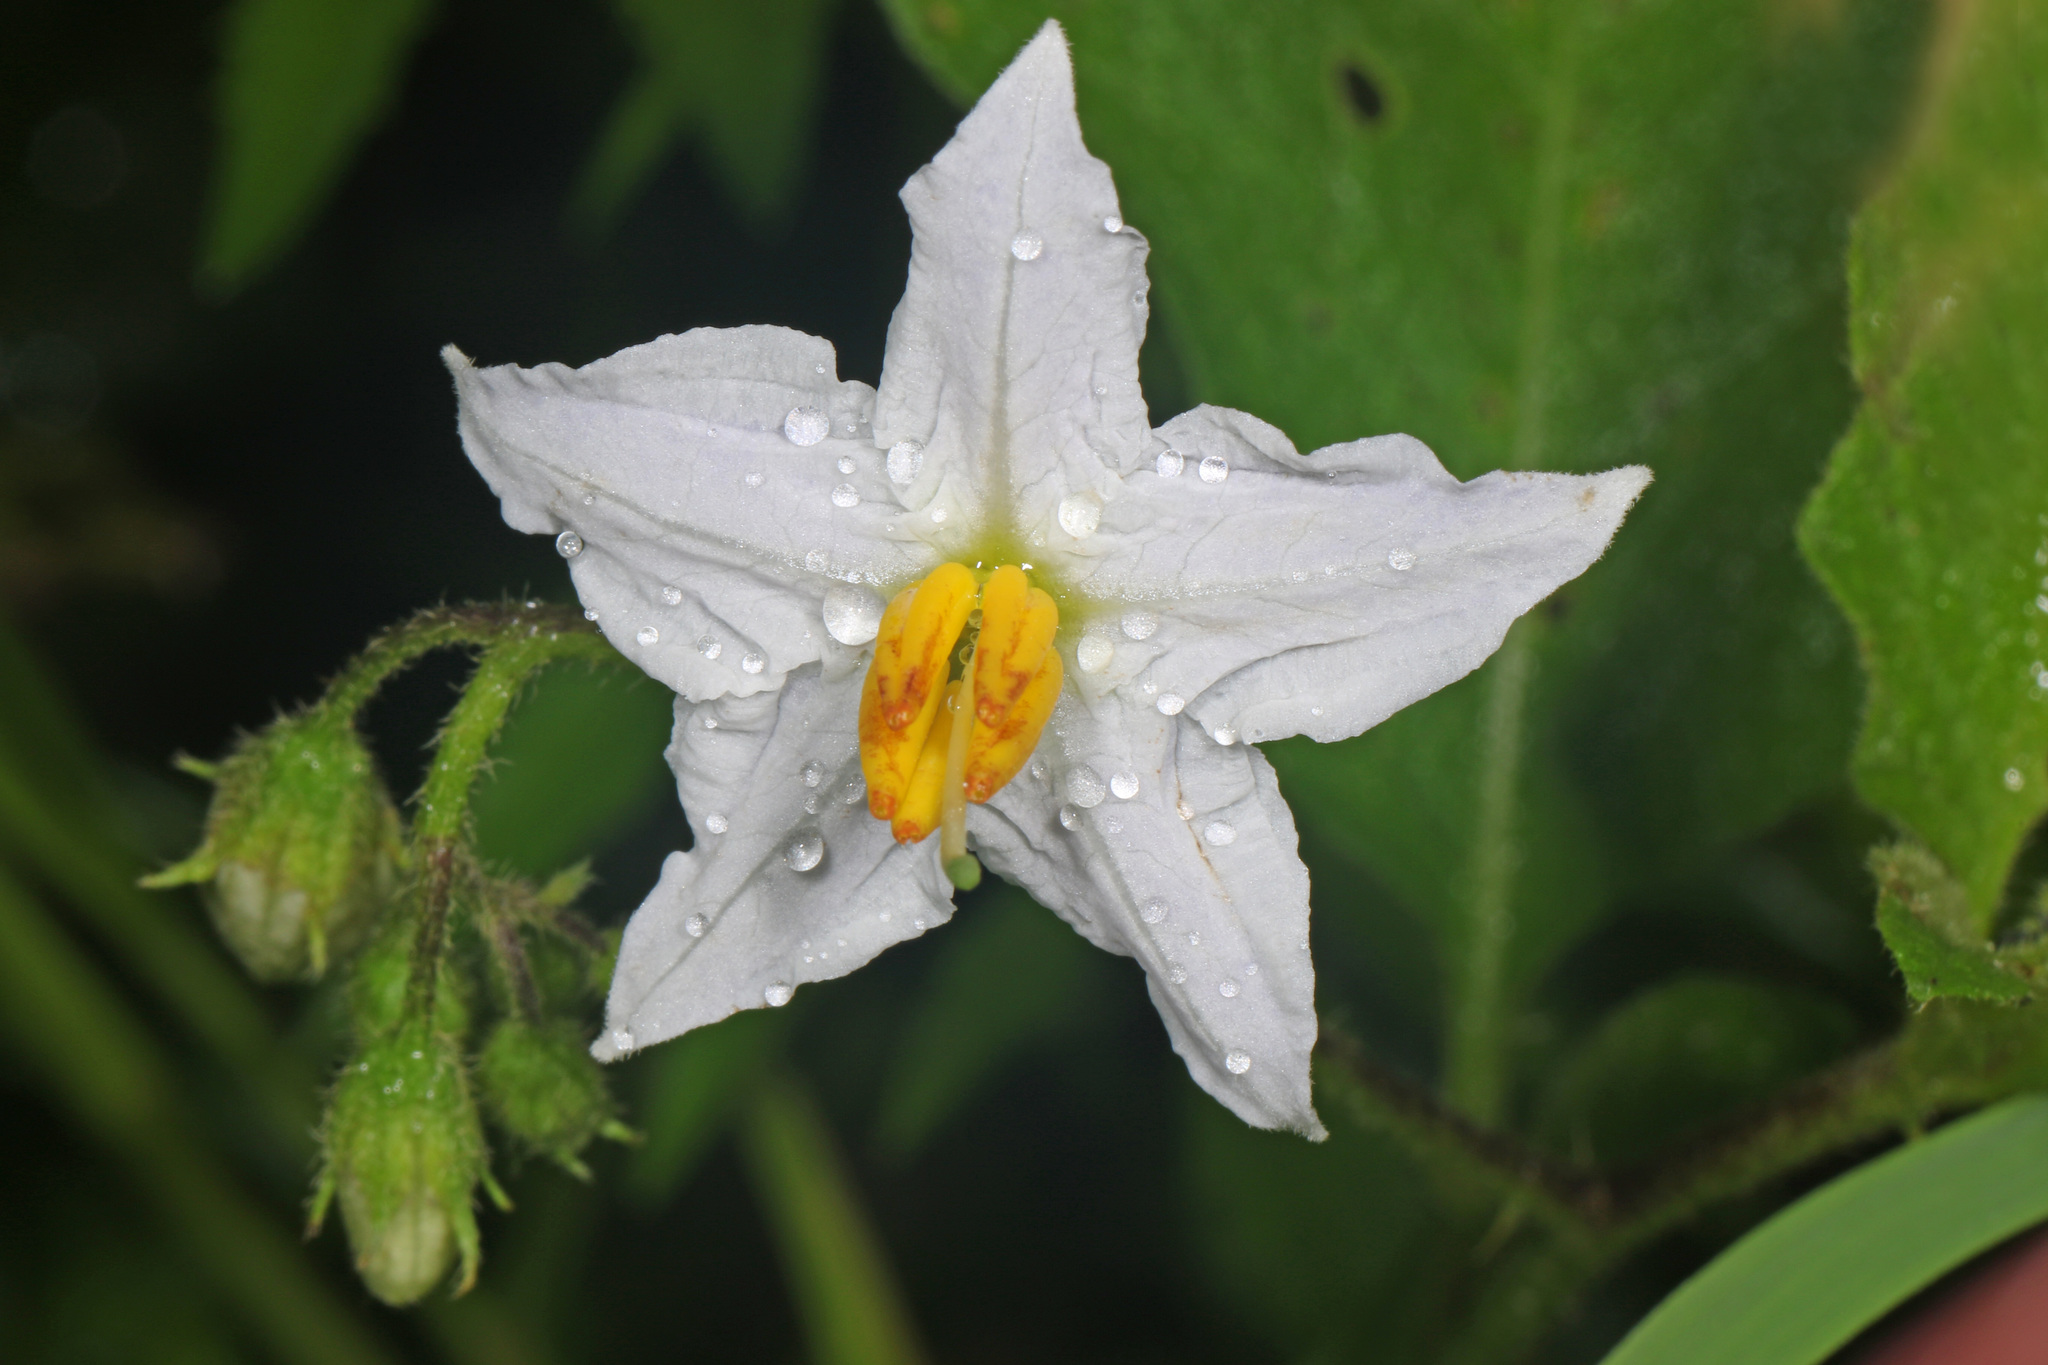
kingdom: Plantae
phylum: Tracheophyta
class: Magnoliopsida
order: Solanales
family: Solanaceae
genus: Solanum
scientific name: Solanum carolinense
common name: Horse-nettle
